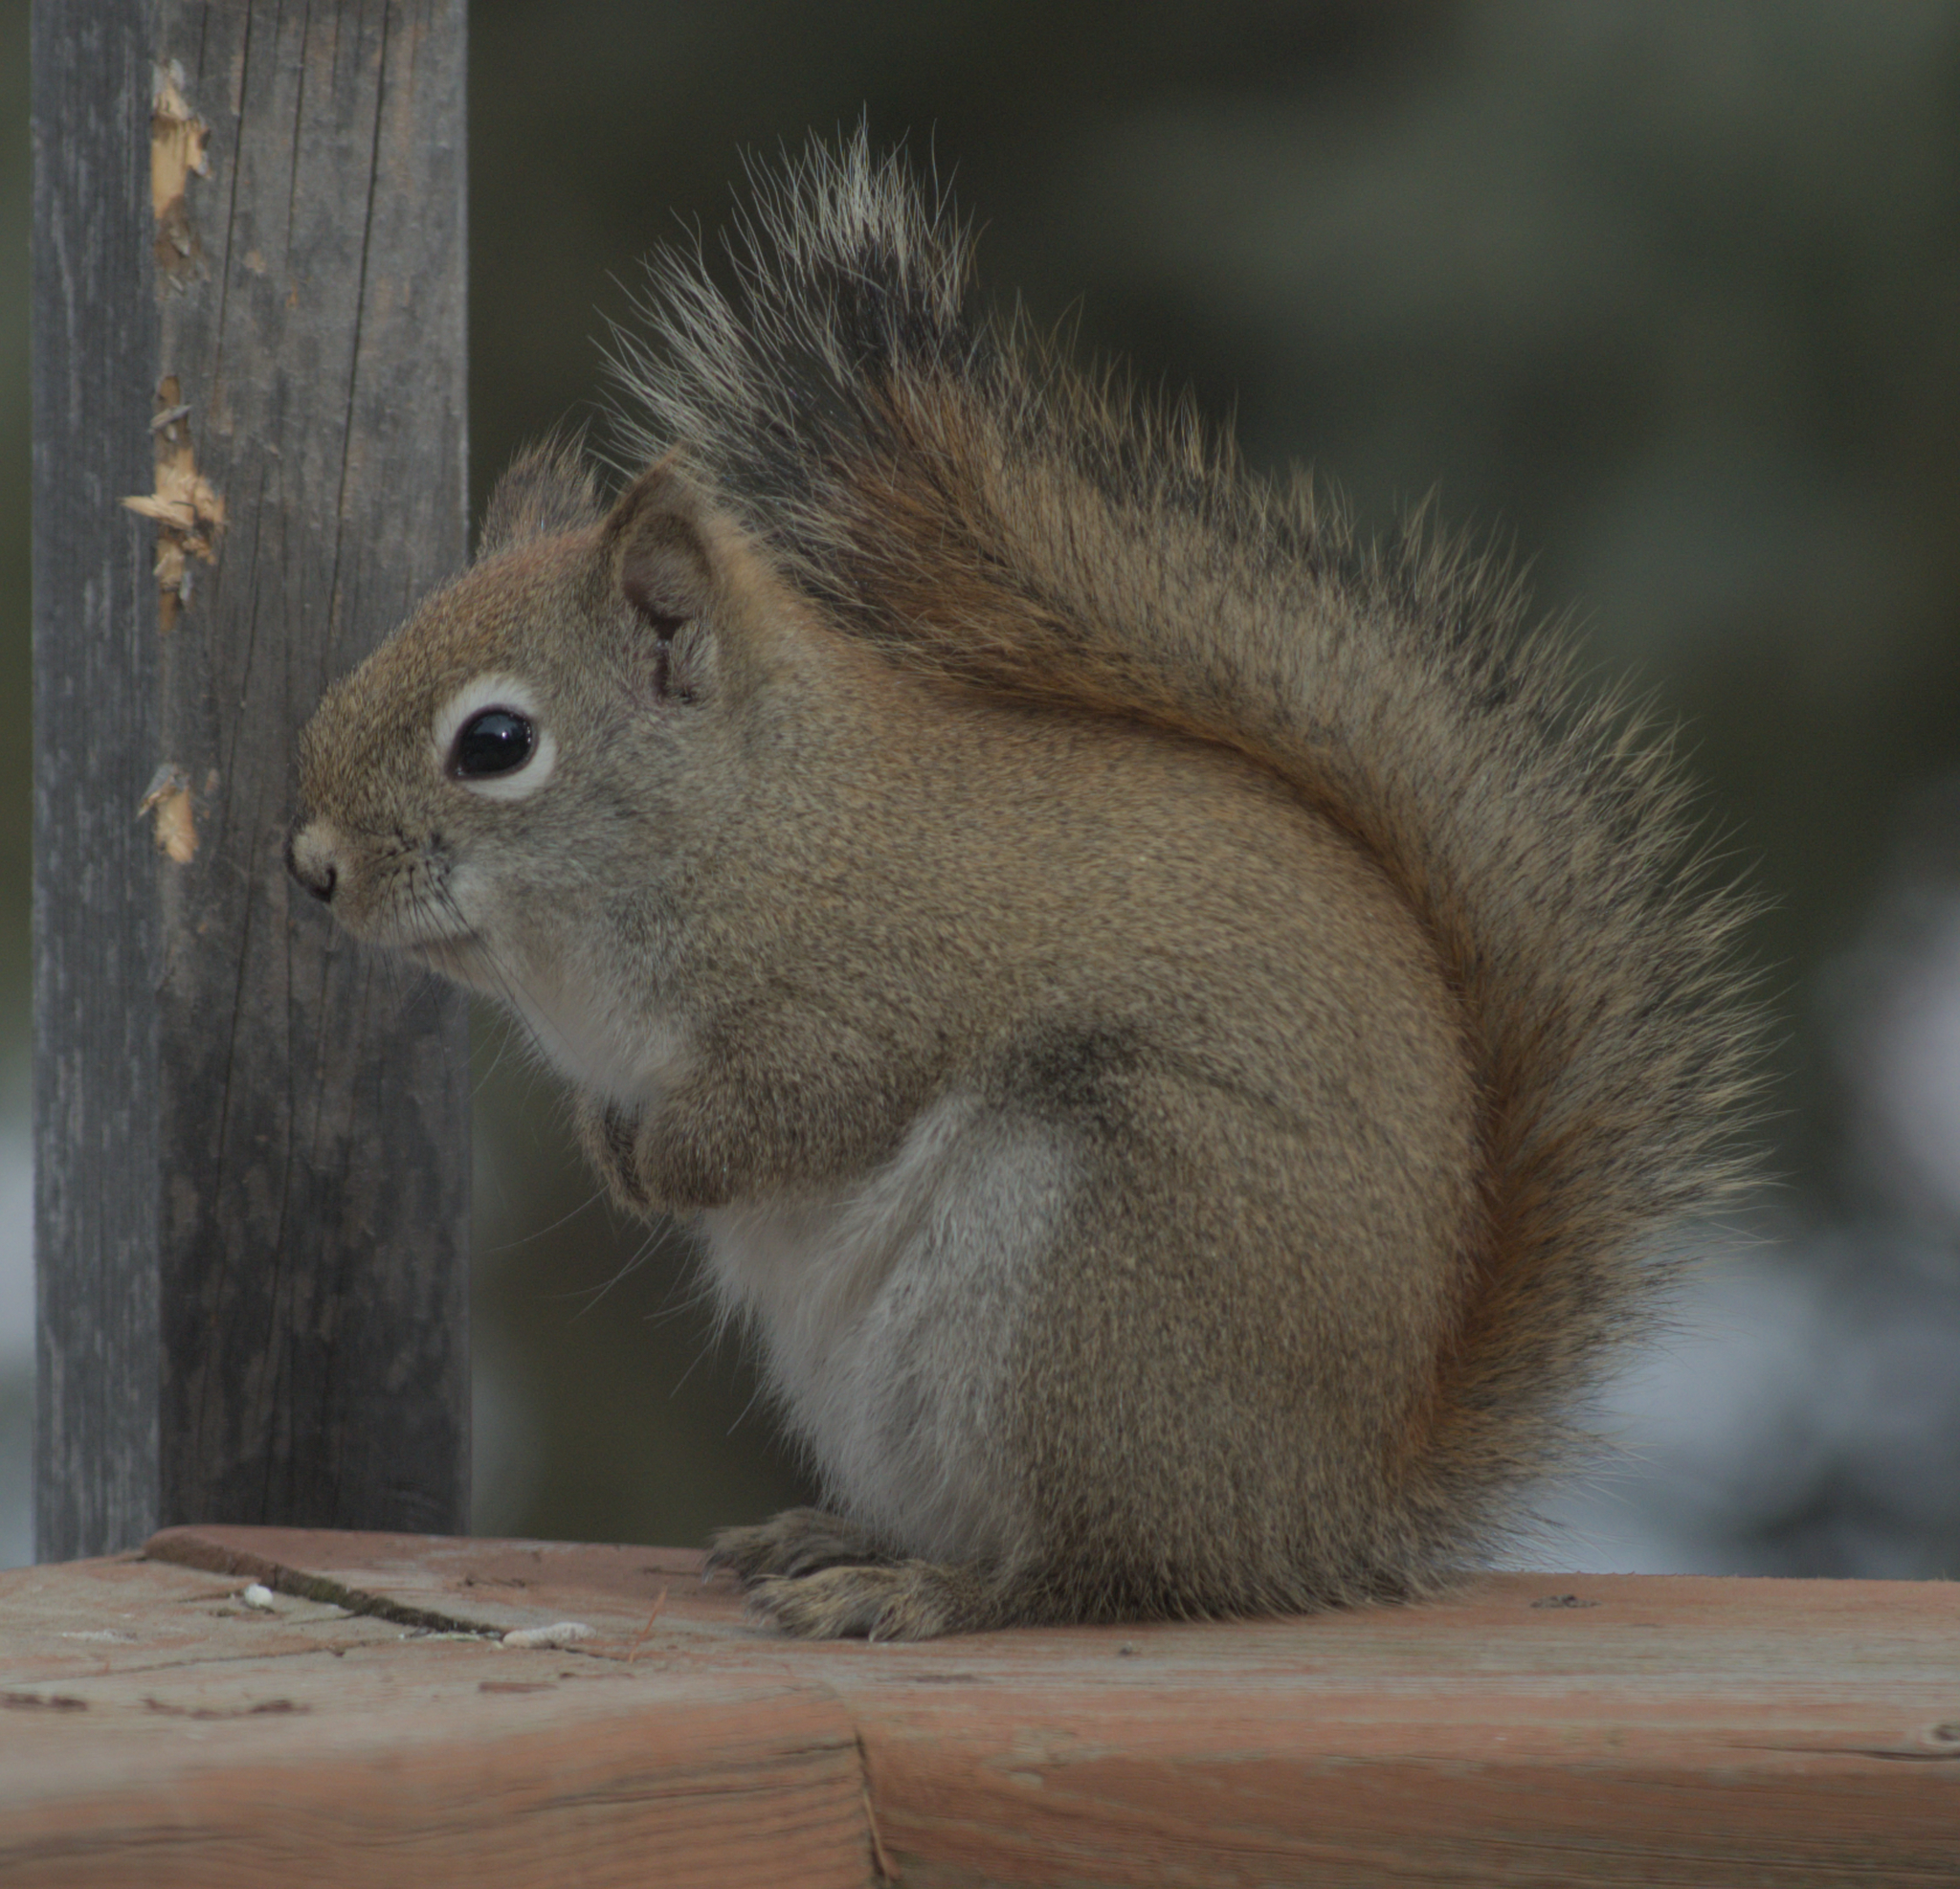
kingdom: Animalia
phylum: Chordata
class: Mammalia
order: Rodentia
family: Sciuridae
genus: Tamiasciurus
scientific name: Tamiasciurus hudsonicus
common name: Red squirrel
